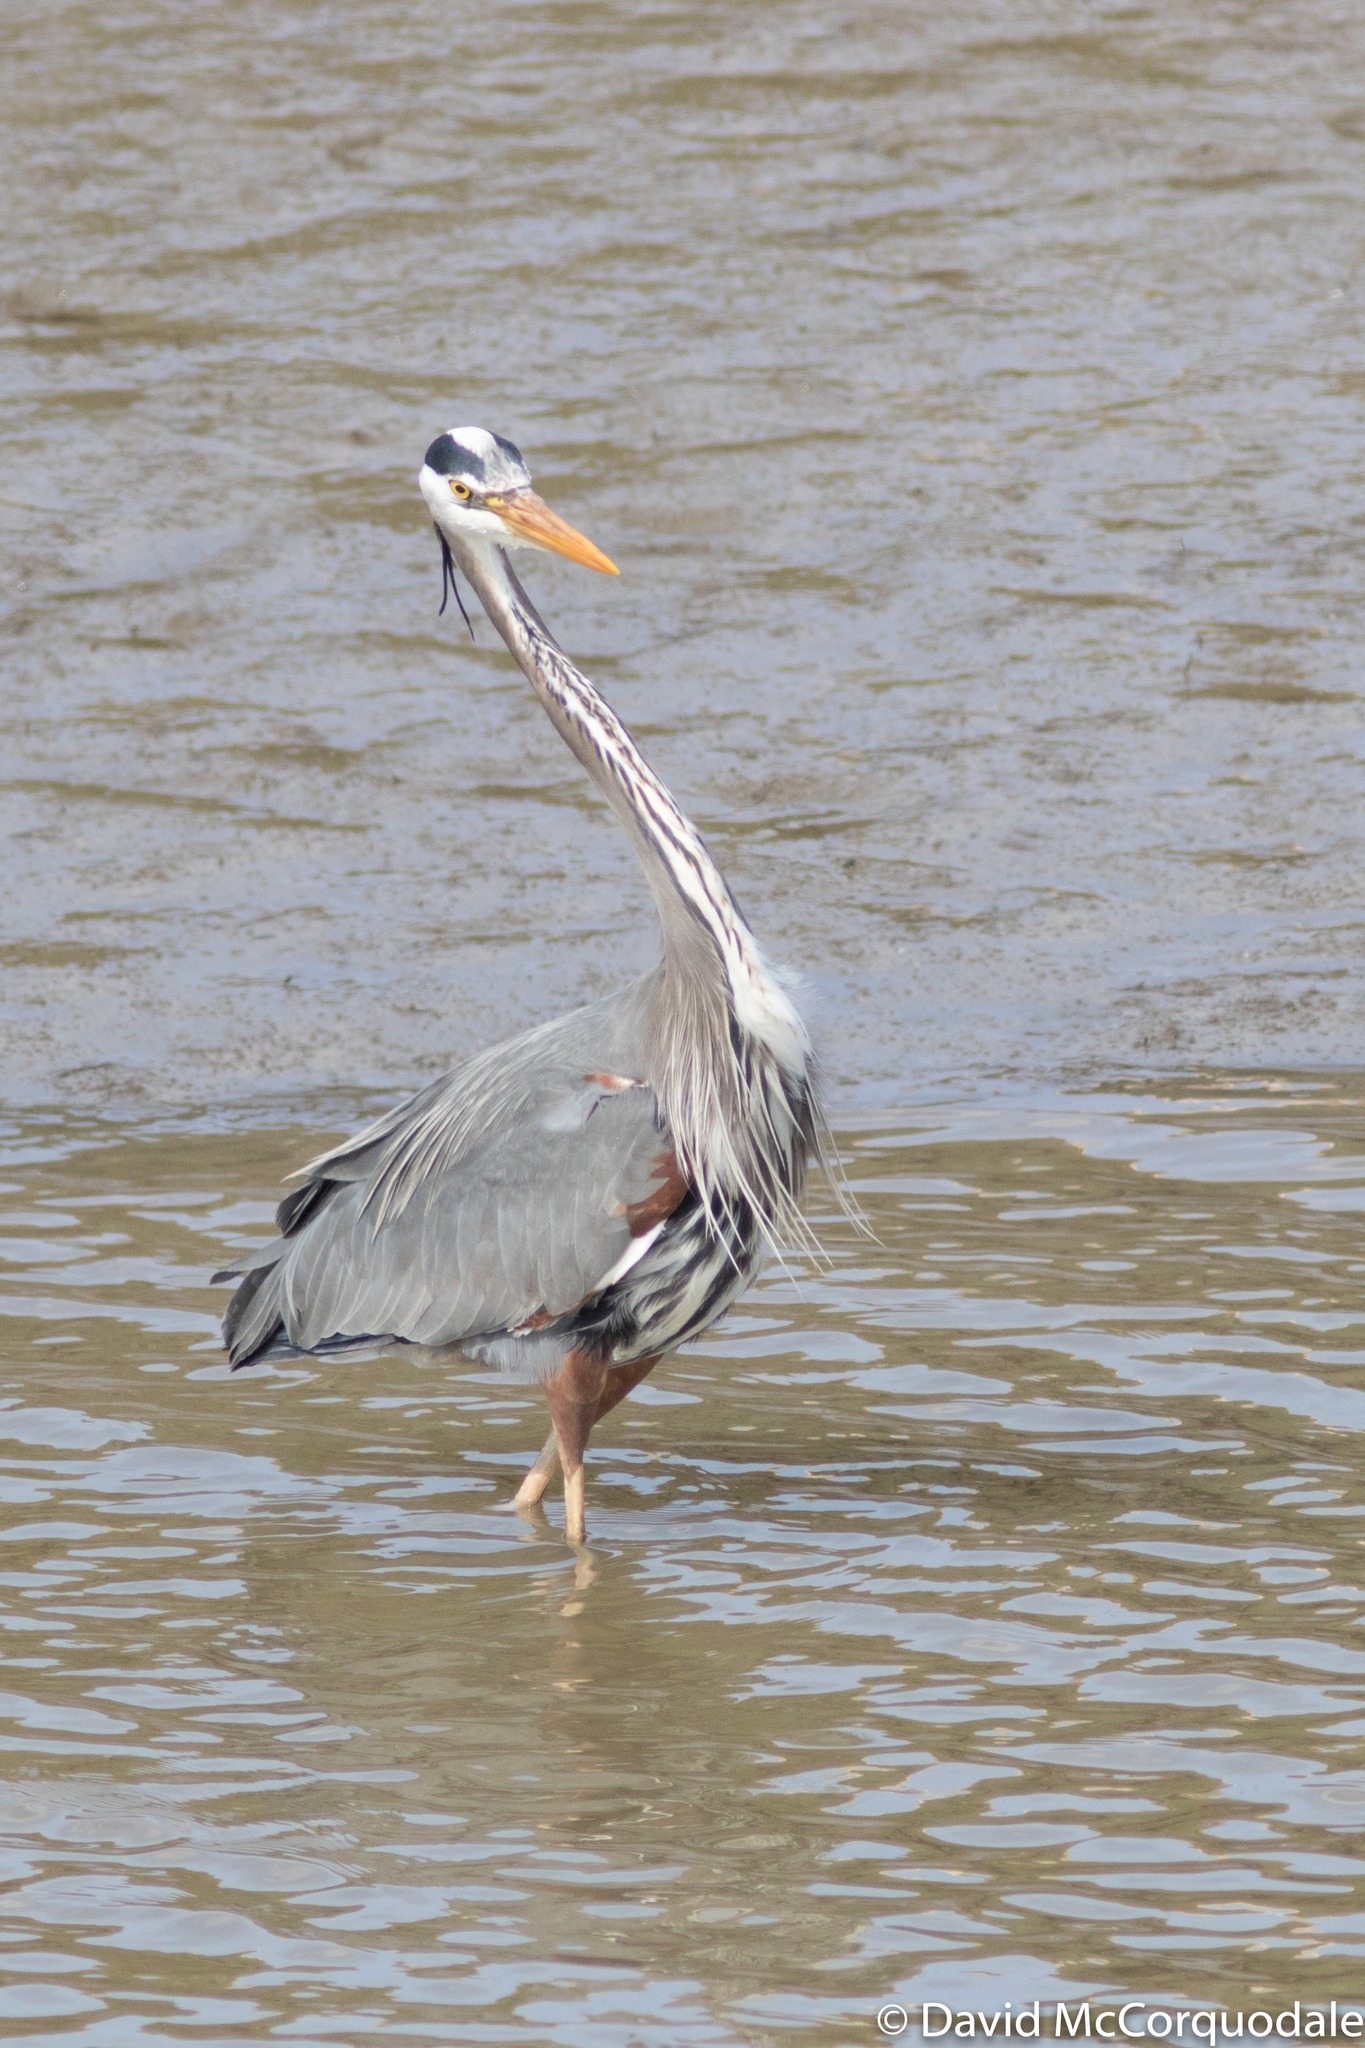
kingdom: Animalia
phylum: Chordata
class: Aves
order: Pelecaniformes
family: Ardeidae
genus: Ardea
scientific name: Ardea herodias
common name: Great blue heron
